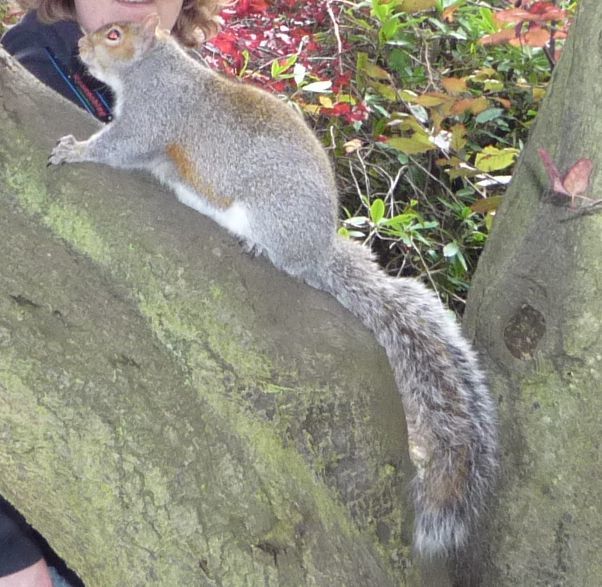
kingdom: Animalia
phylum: Chordata
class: Mammalia
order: Rodentia
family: Sciuridae
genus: Sciurus
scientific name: Sciurus carolinensis
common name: Eastern gray squirrel
